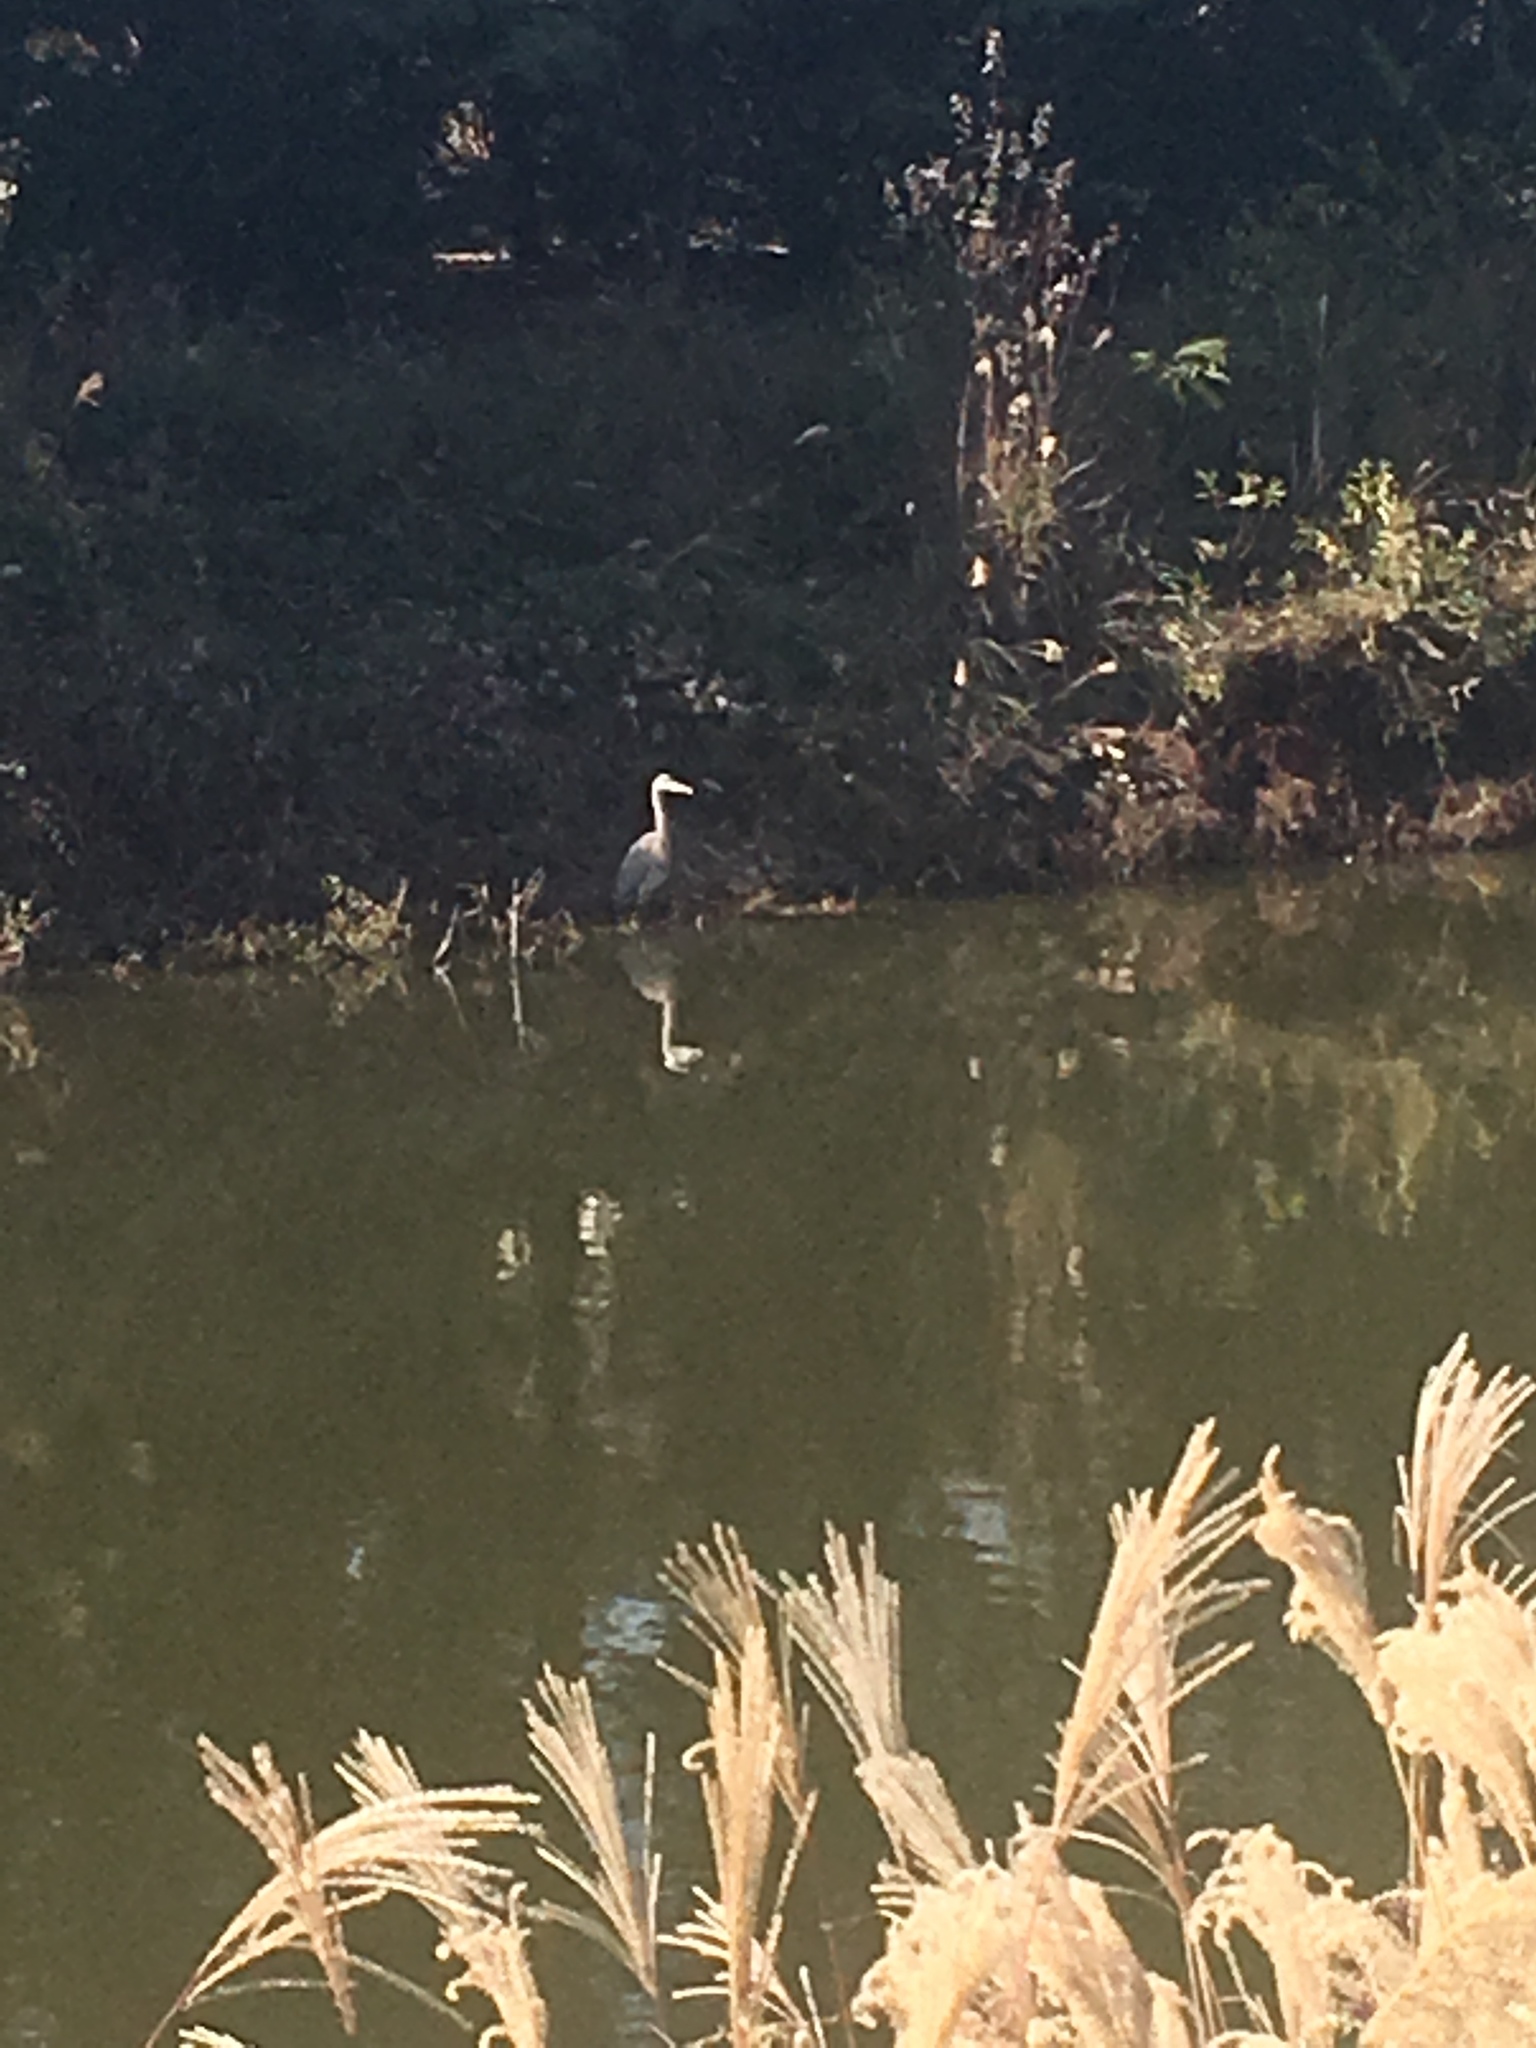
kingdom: Animalia
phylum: Chordata
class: Aves
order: Pelecaniformes
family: Ardeidae
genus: Ardea
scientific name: Ardea herodias
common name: Great blue heron
